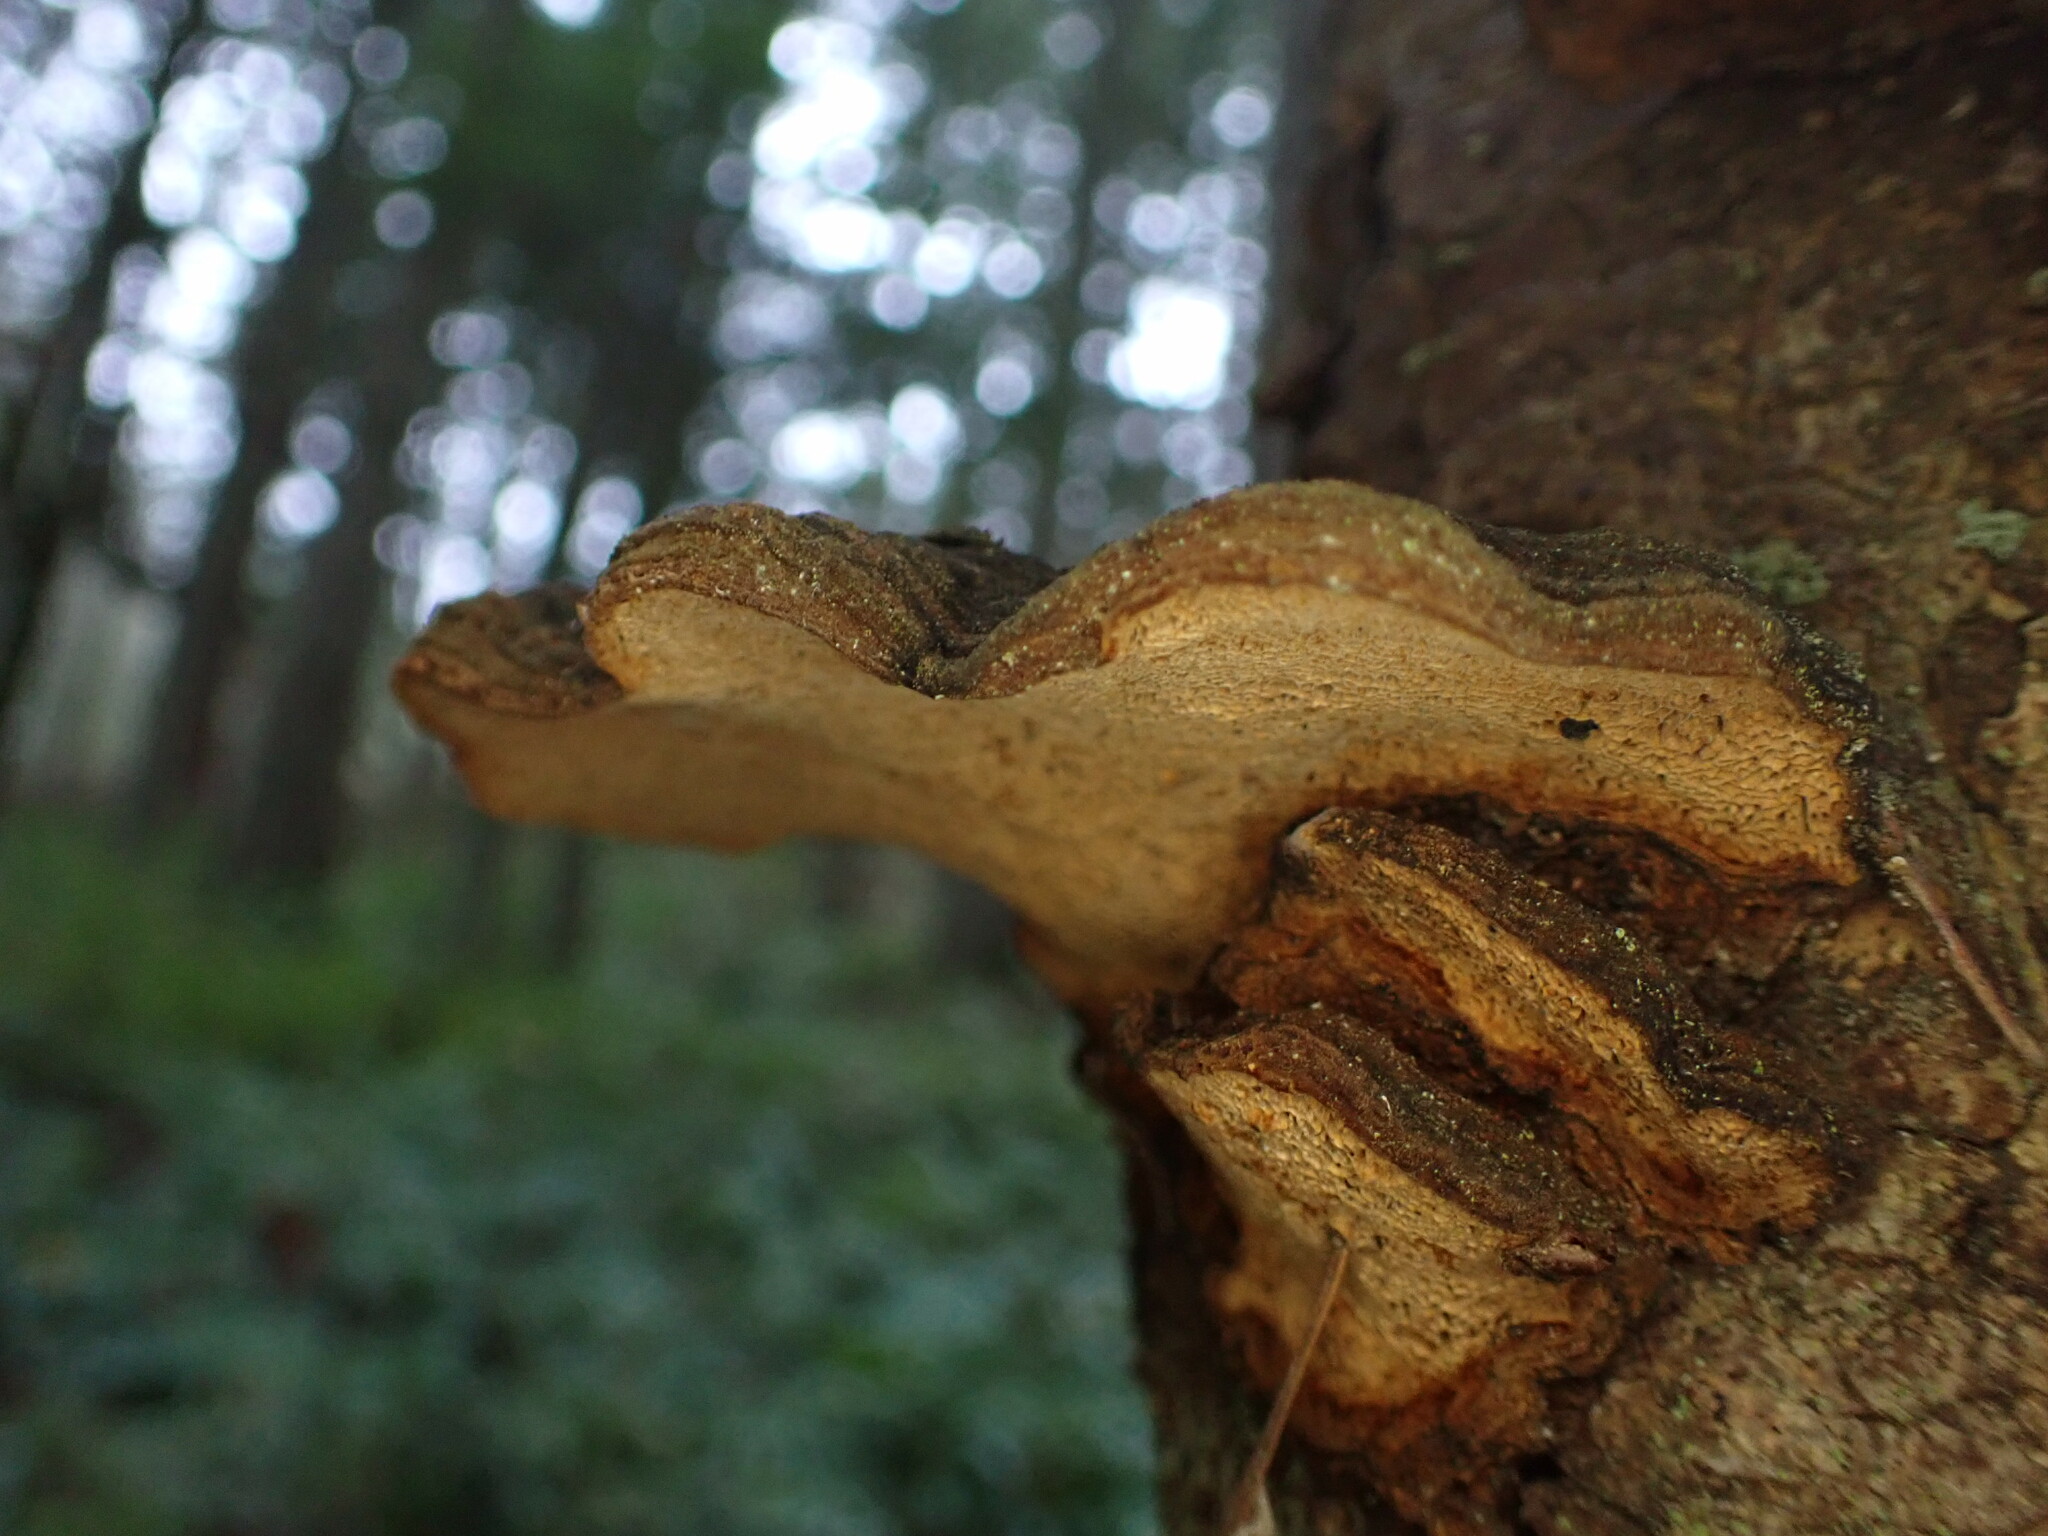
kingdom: Fungi
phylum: Basidiomycota
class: Agaricomycetes
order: Hymenochaetales
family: Hymenochaetaceae
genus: Porodaedalea
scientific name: Porodaedalea pini
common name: Pine bracket
